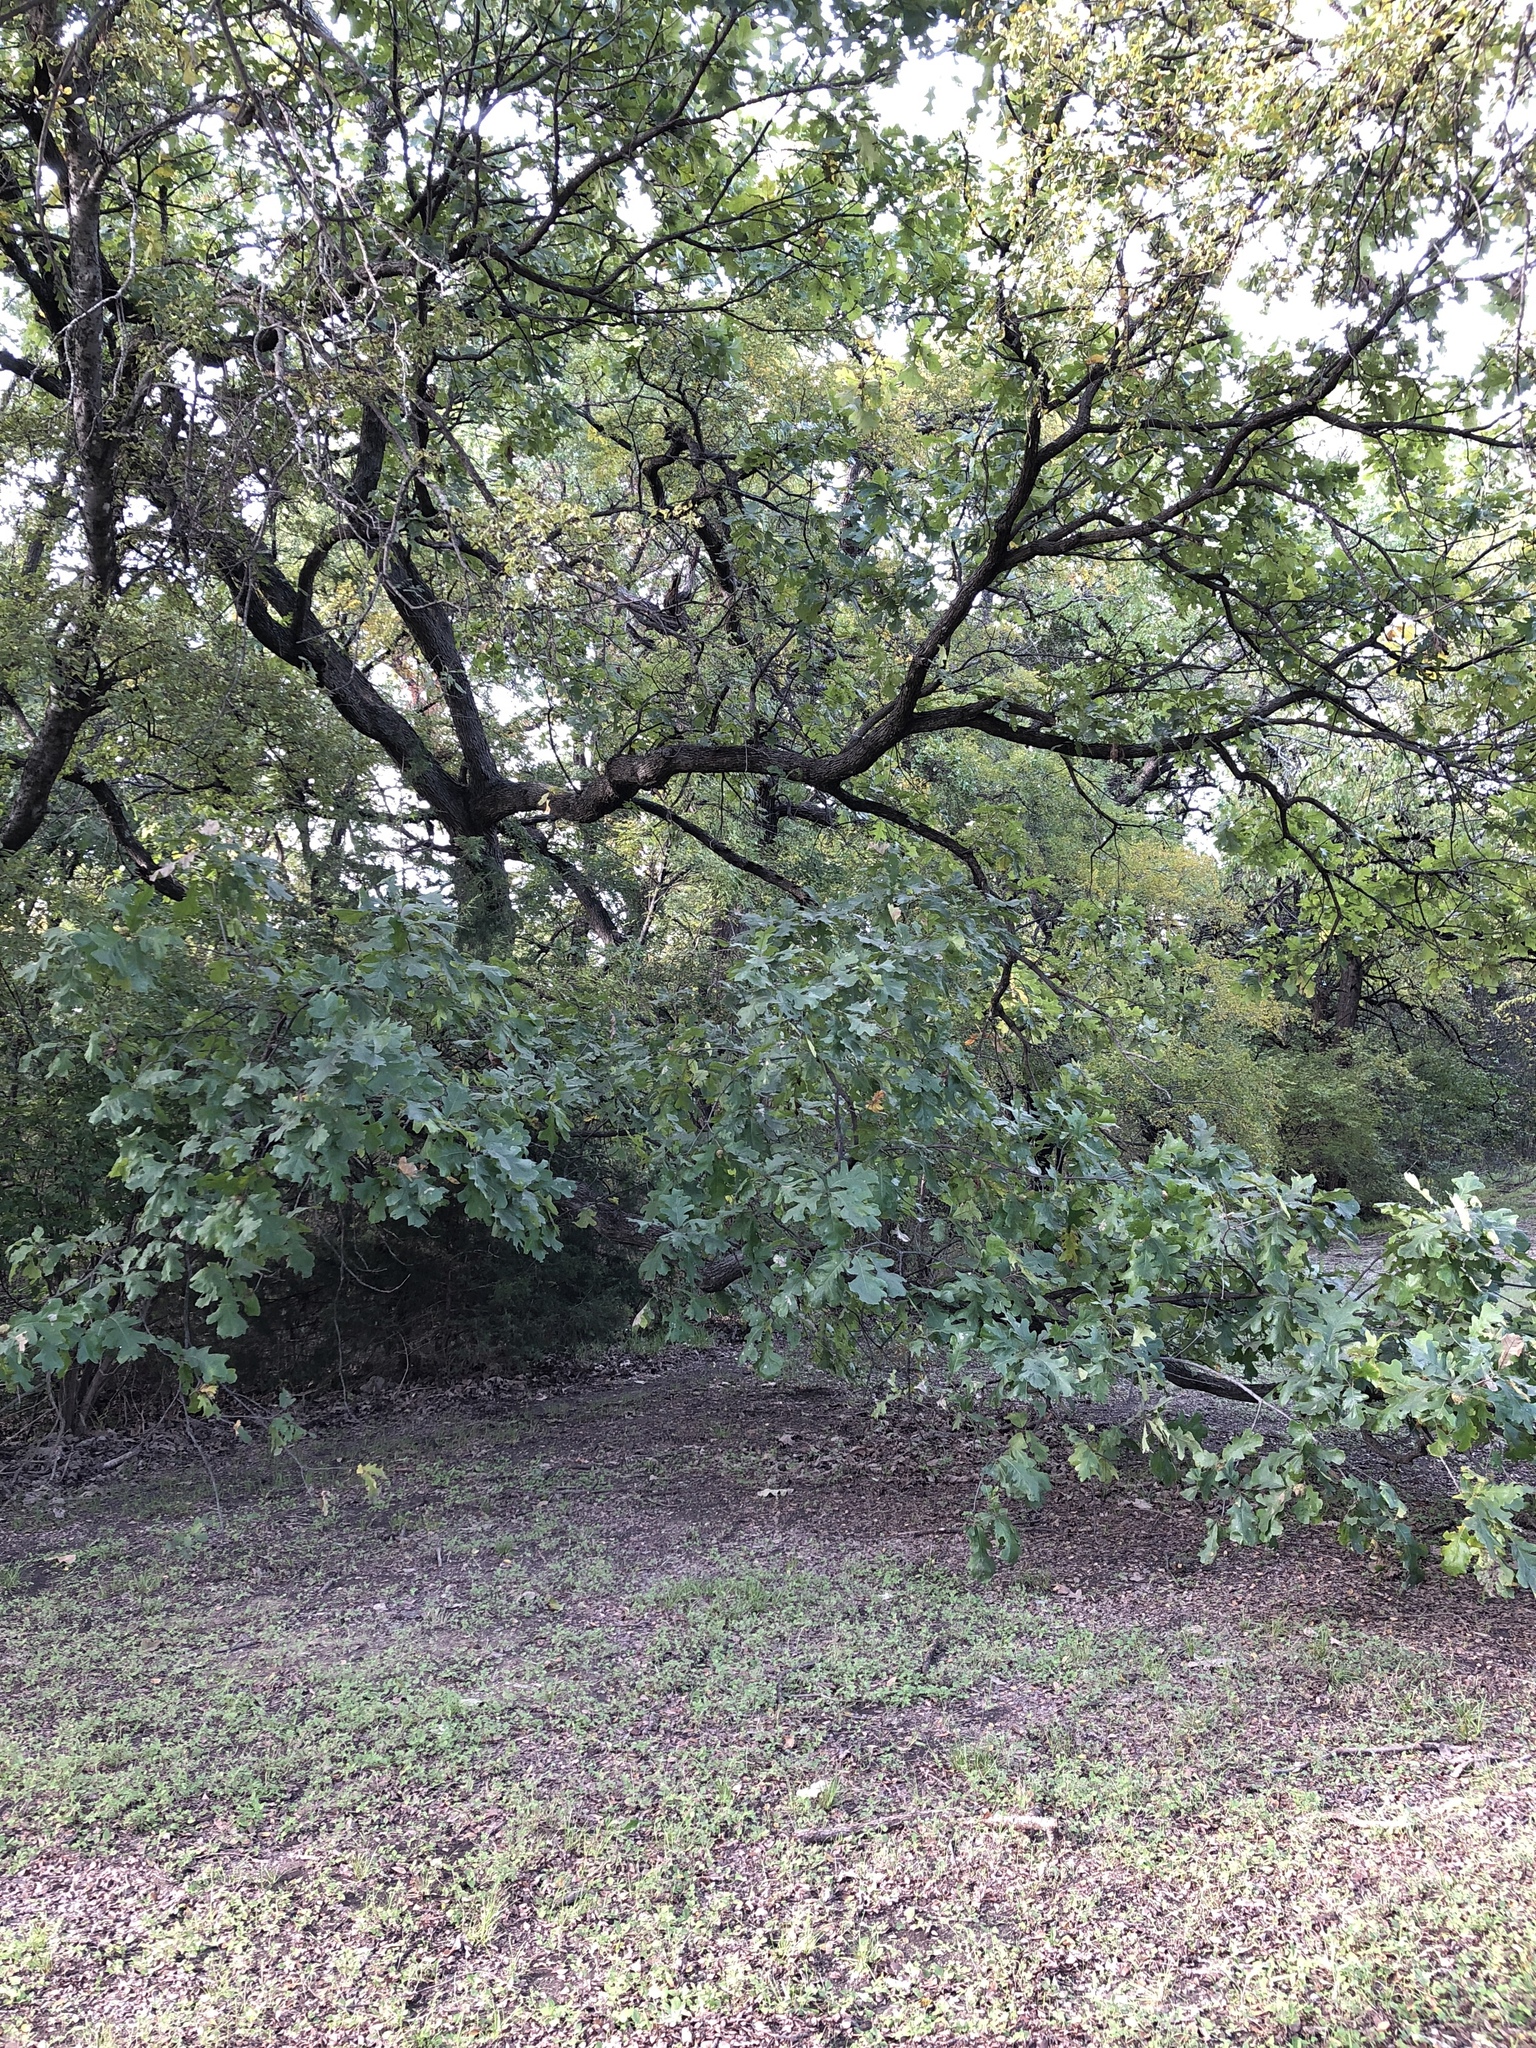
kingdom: Plantae
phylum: Tracheophyta
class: Magnoliopsida
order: Fagales
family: Fagaceae
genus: Quercus
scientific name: Quercus macrocarpa
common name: Bur oak
